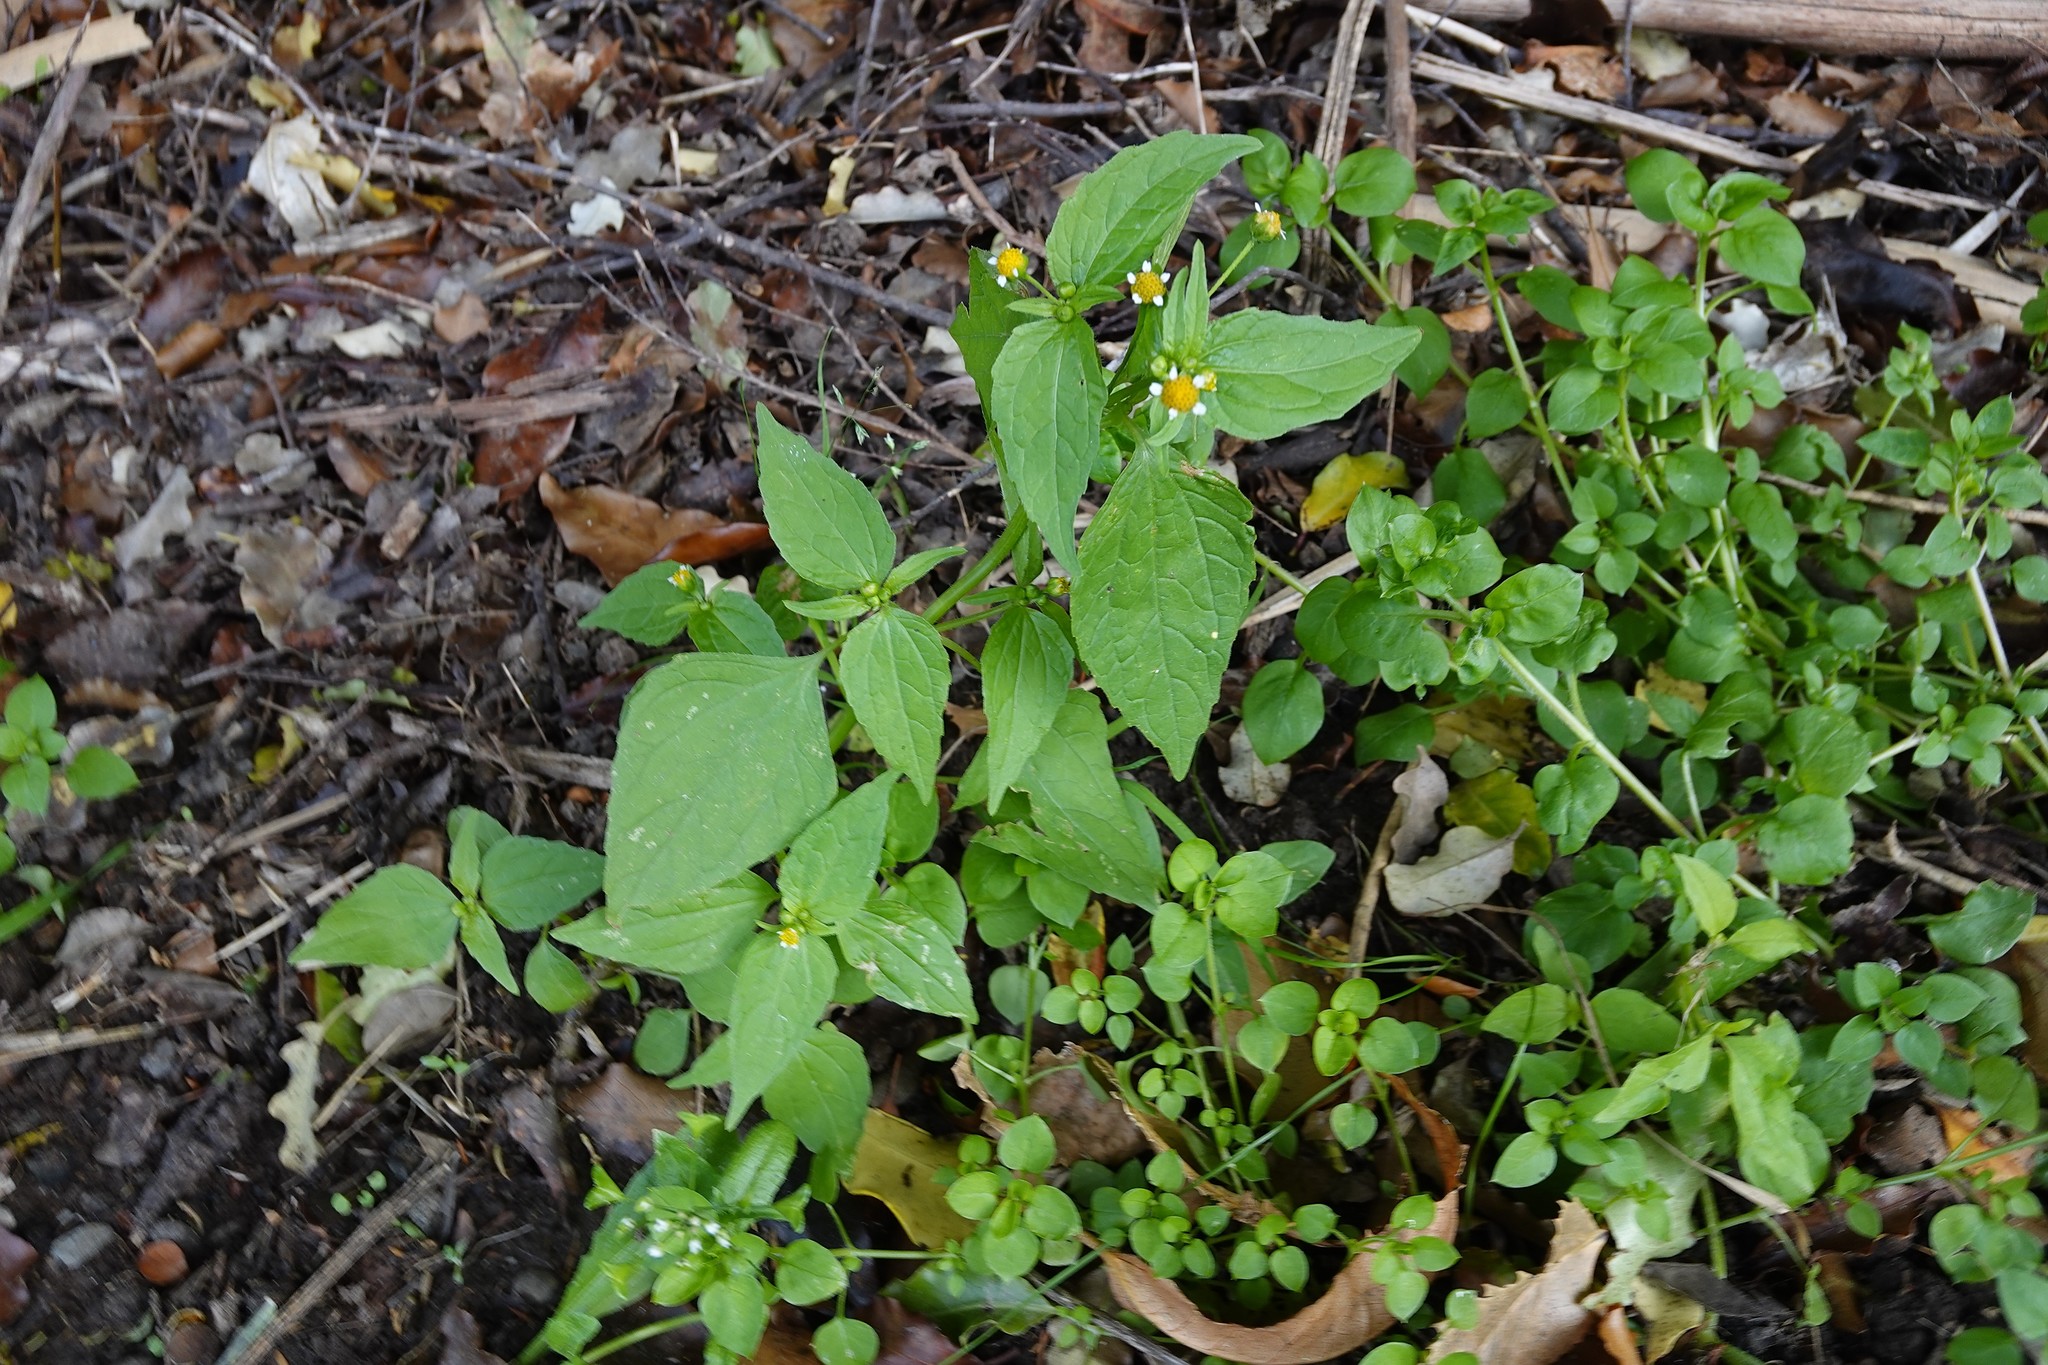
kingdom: Plantae
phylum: Tracheophyta
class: Magnoliopsida
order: Asterales
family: Asteraceae
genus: Galinsoga
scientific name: Galinsoga parviflora
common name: Gallant soldier
